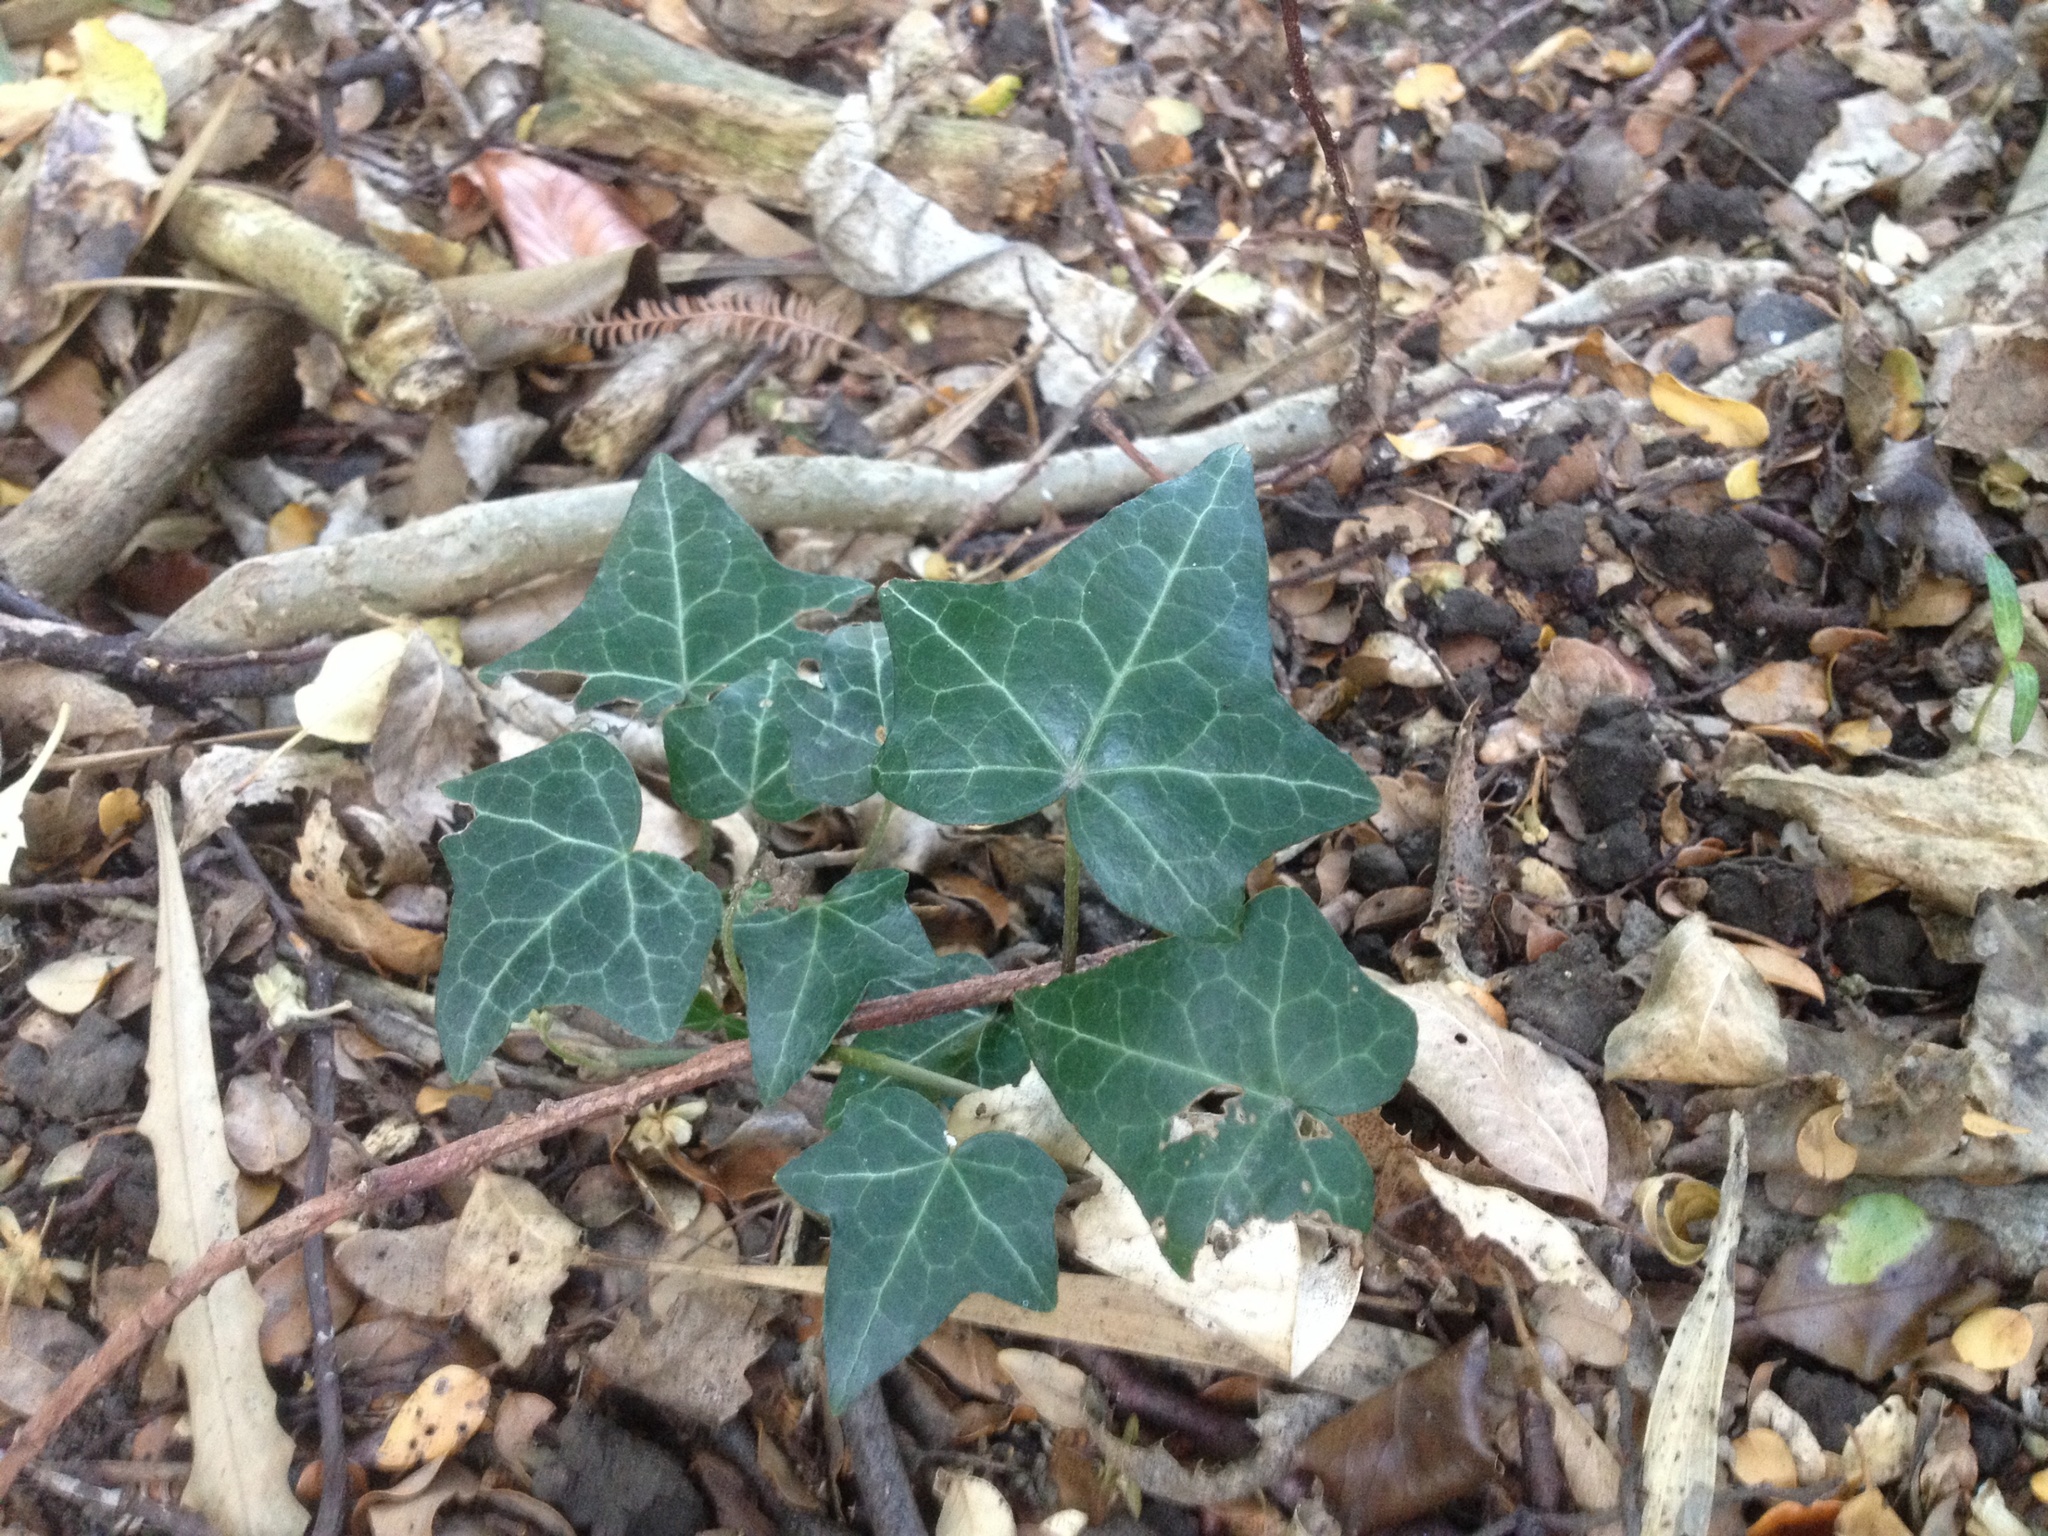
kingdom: Plantae
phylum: Tracheophyta
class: Magnoliopsida
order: Apiales
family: Araliaceae
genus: Hedera
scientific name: Hedera helix
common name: Ivy
